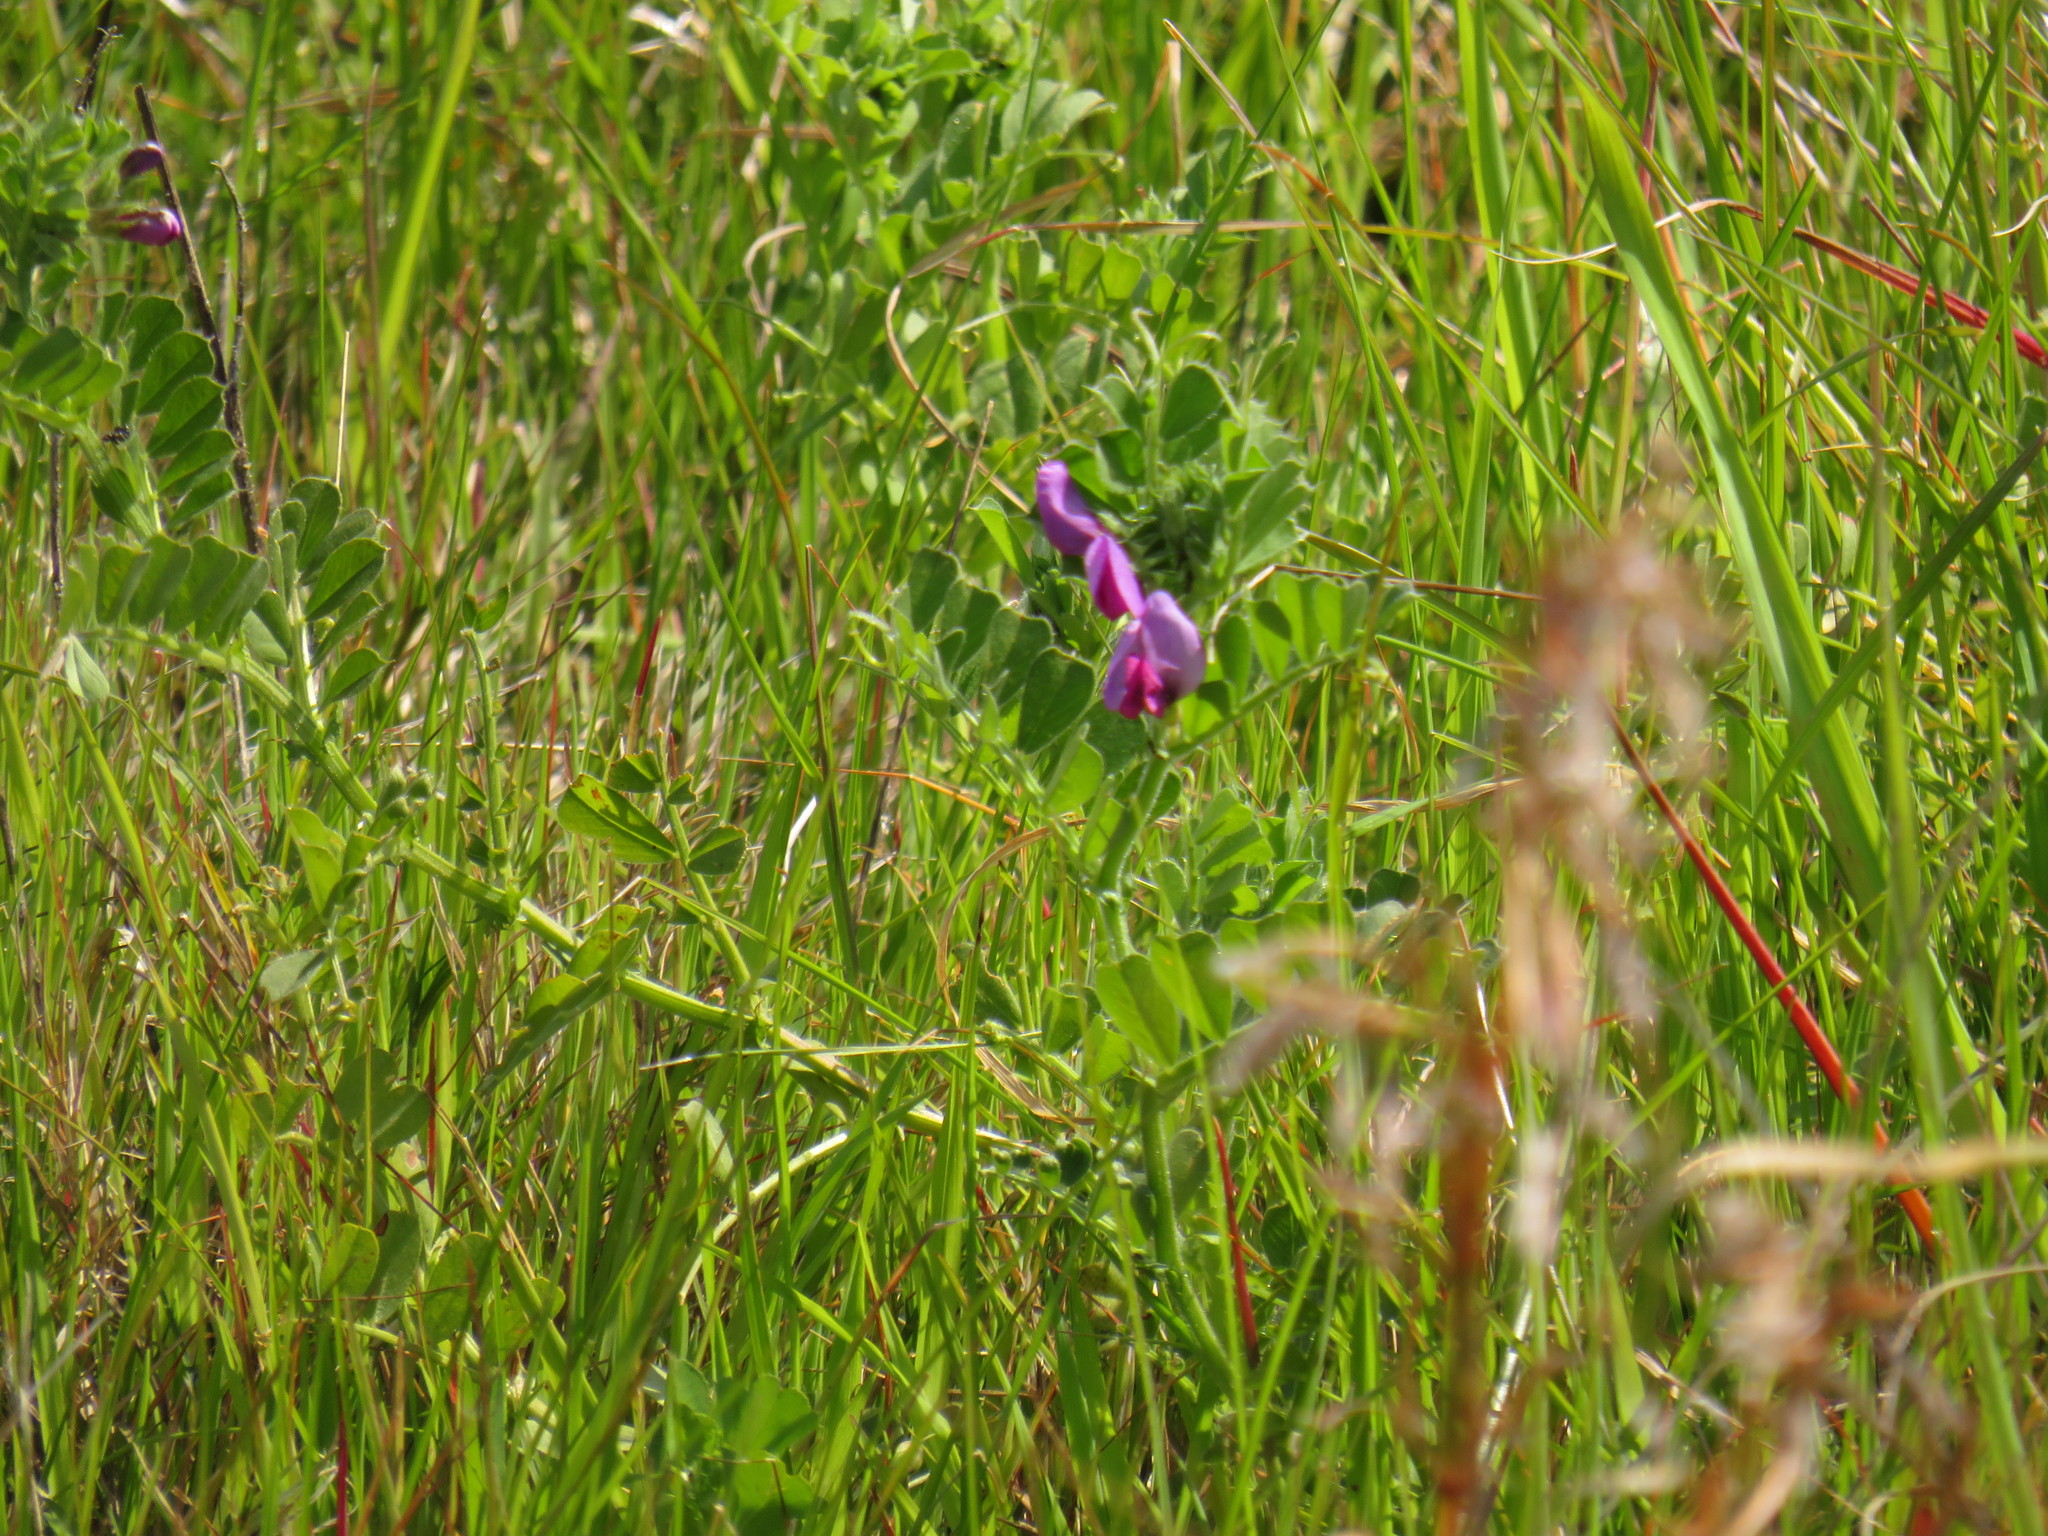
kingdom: Plantae
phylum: Tracheophyta
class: Magnoliopsida
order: Fabales
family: Fabaceae
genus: Vicia
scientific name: Vicia sativa
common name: Garden vetch
